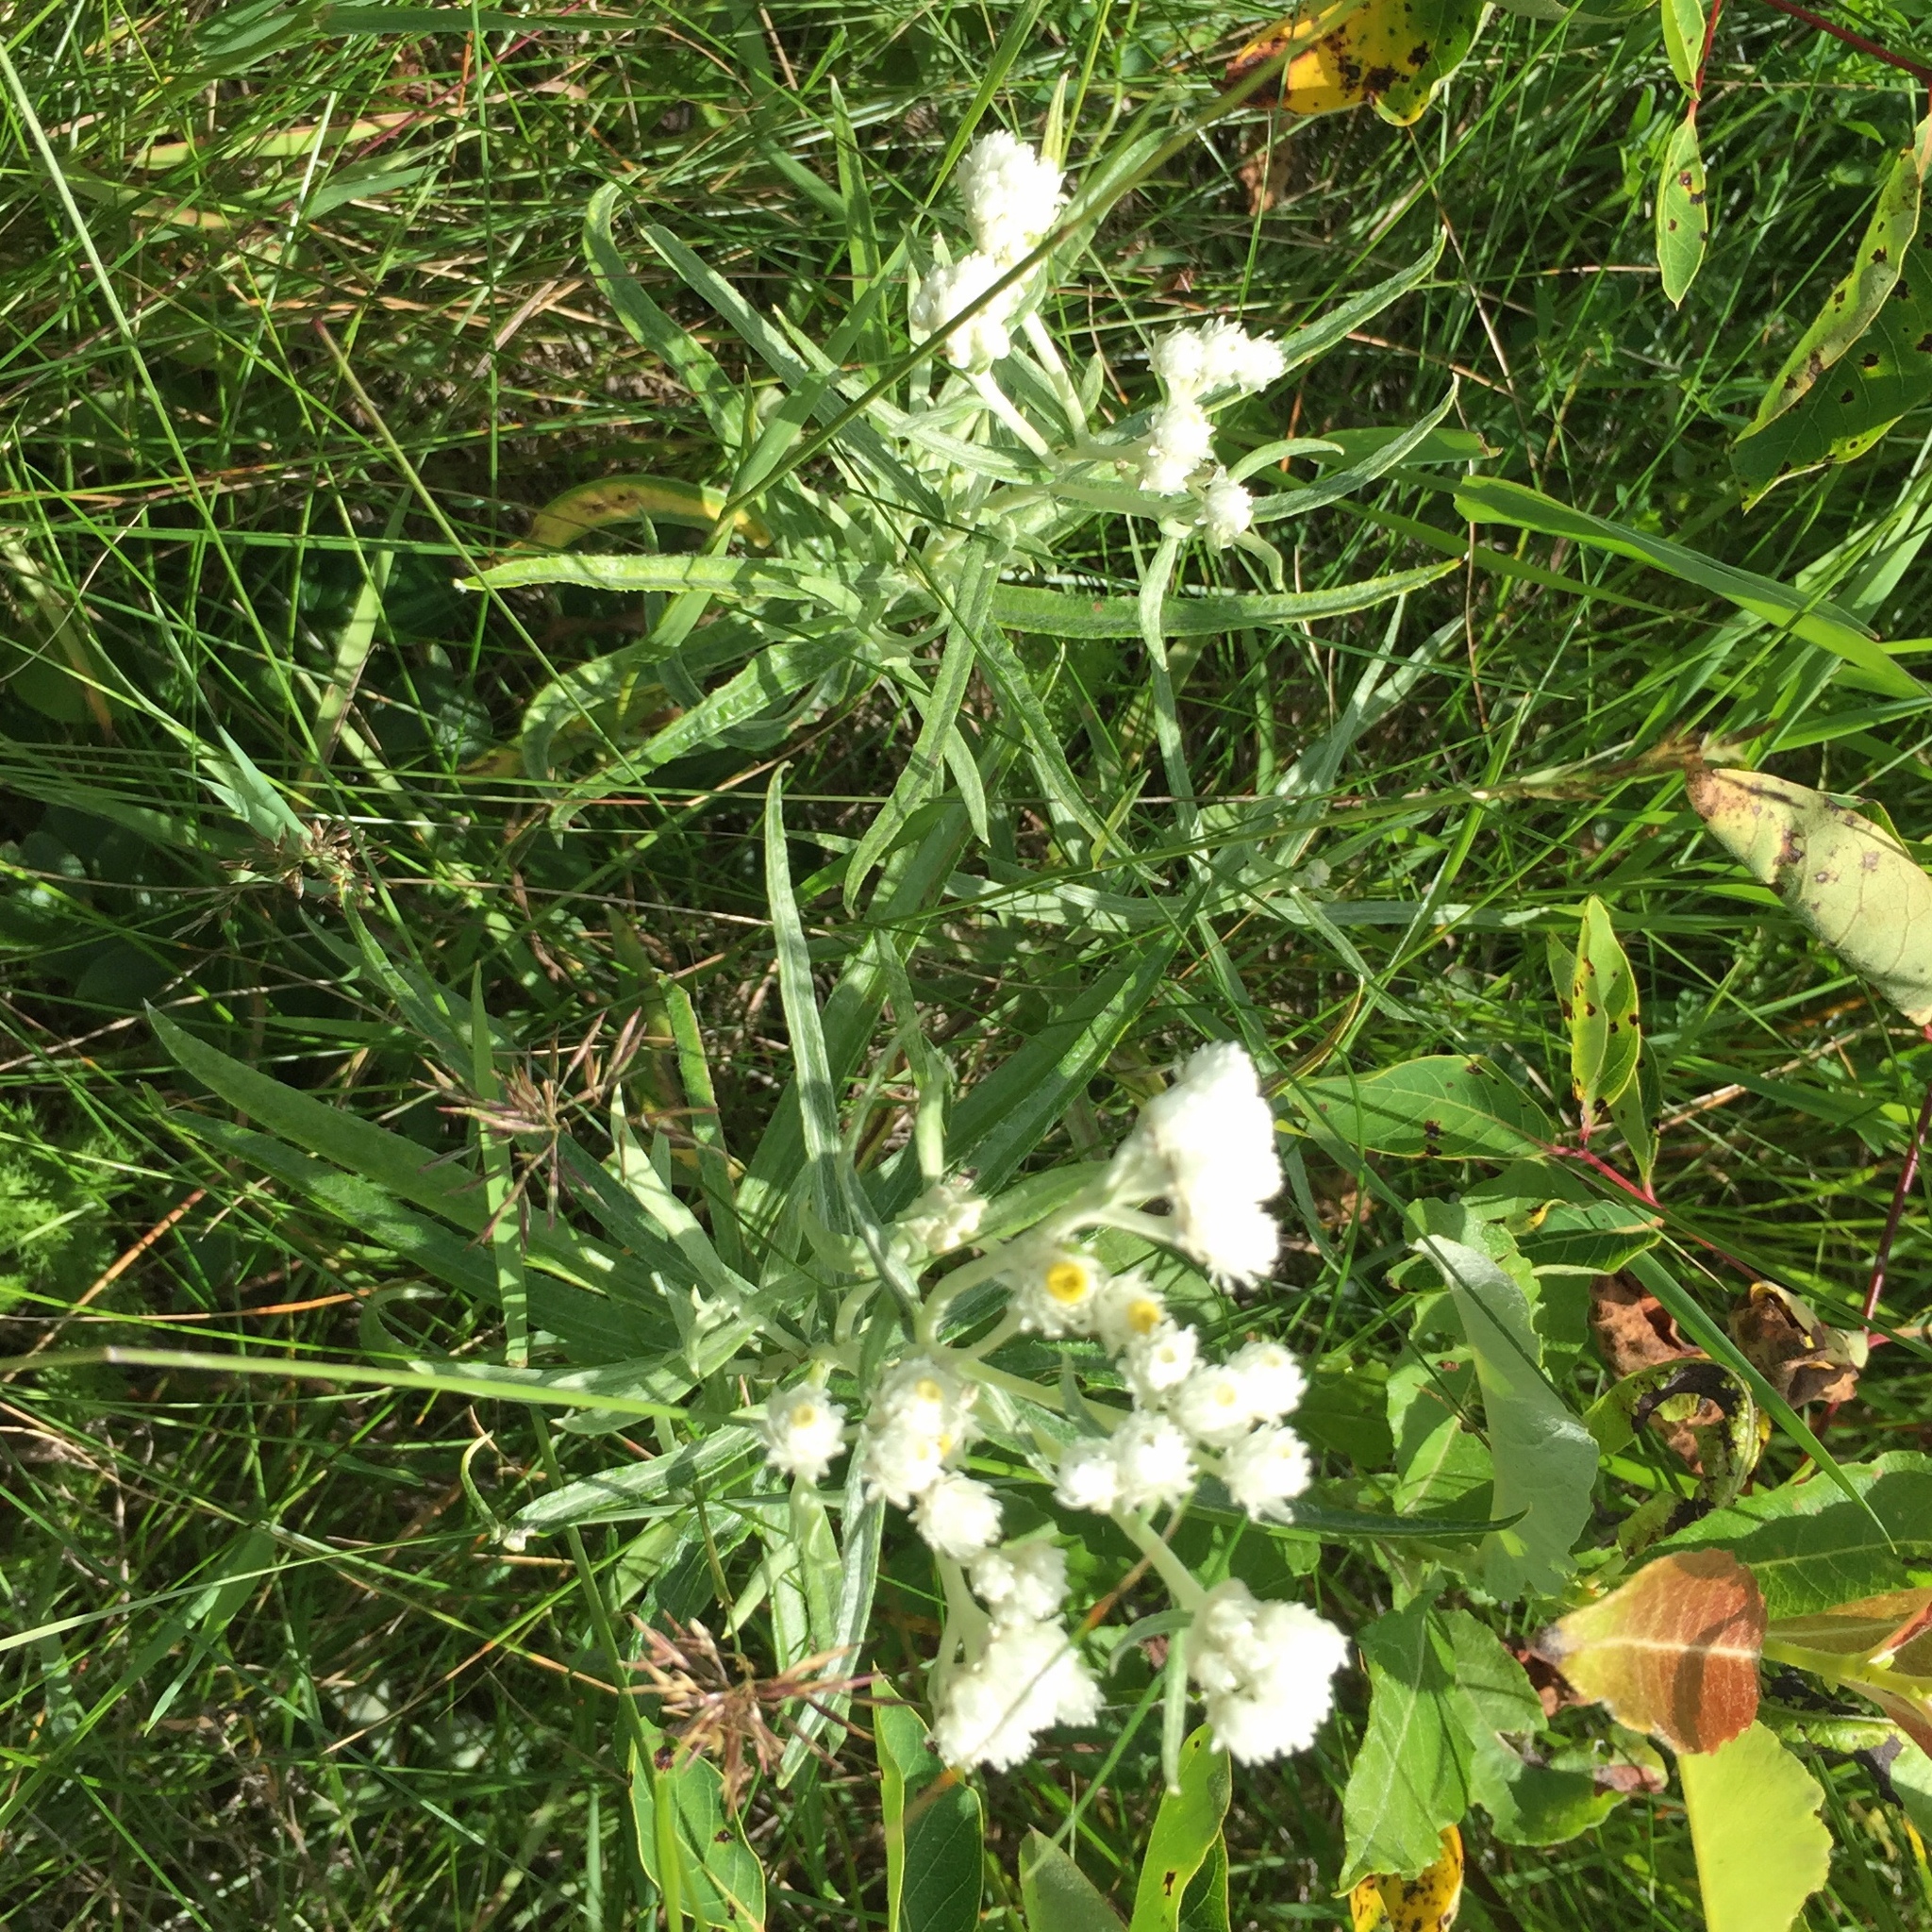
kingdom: Plantae
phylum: Tracheophyta
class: Magnoliopsida
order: Asterales
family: Asteraceae
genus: Anaphalis
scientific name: Anaphalis margaritacea
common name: Pearly everlasting
